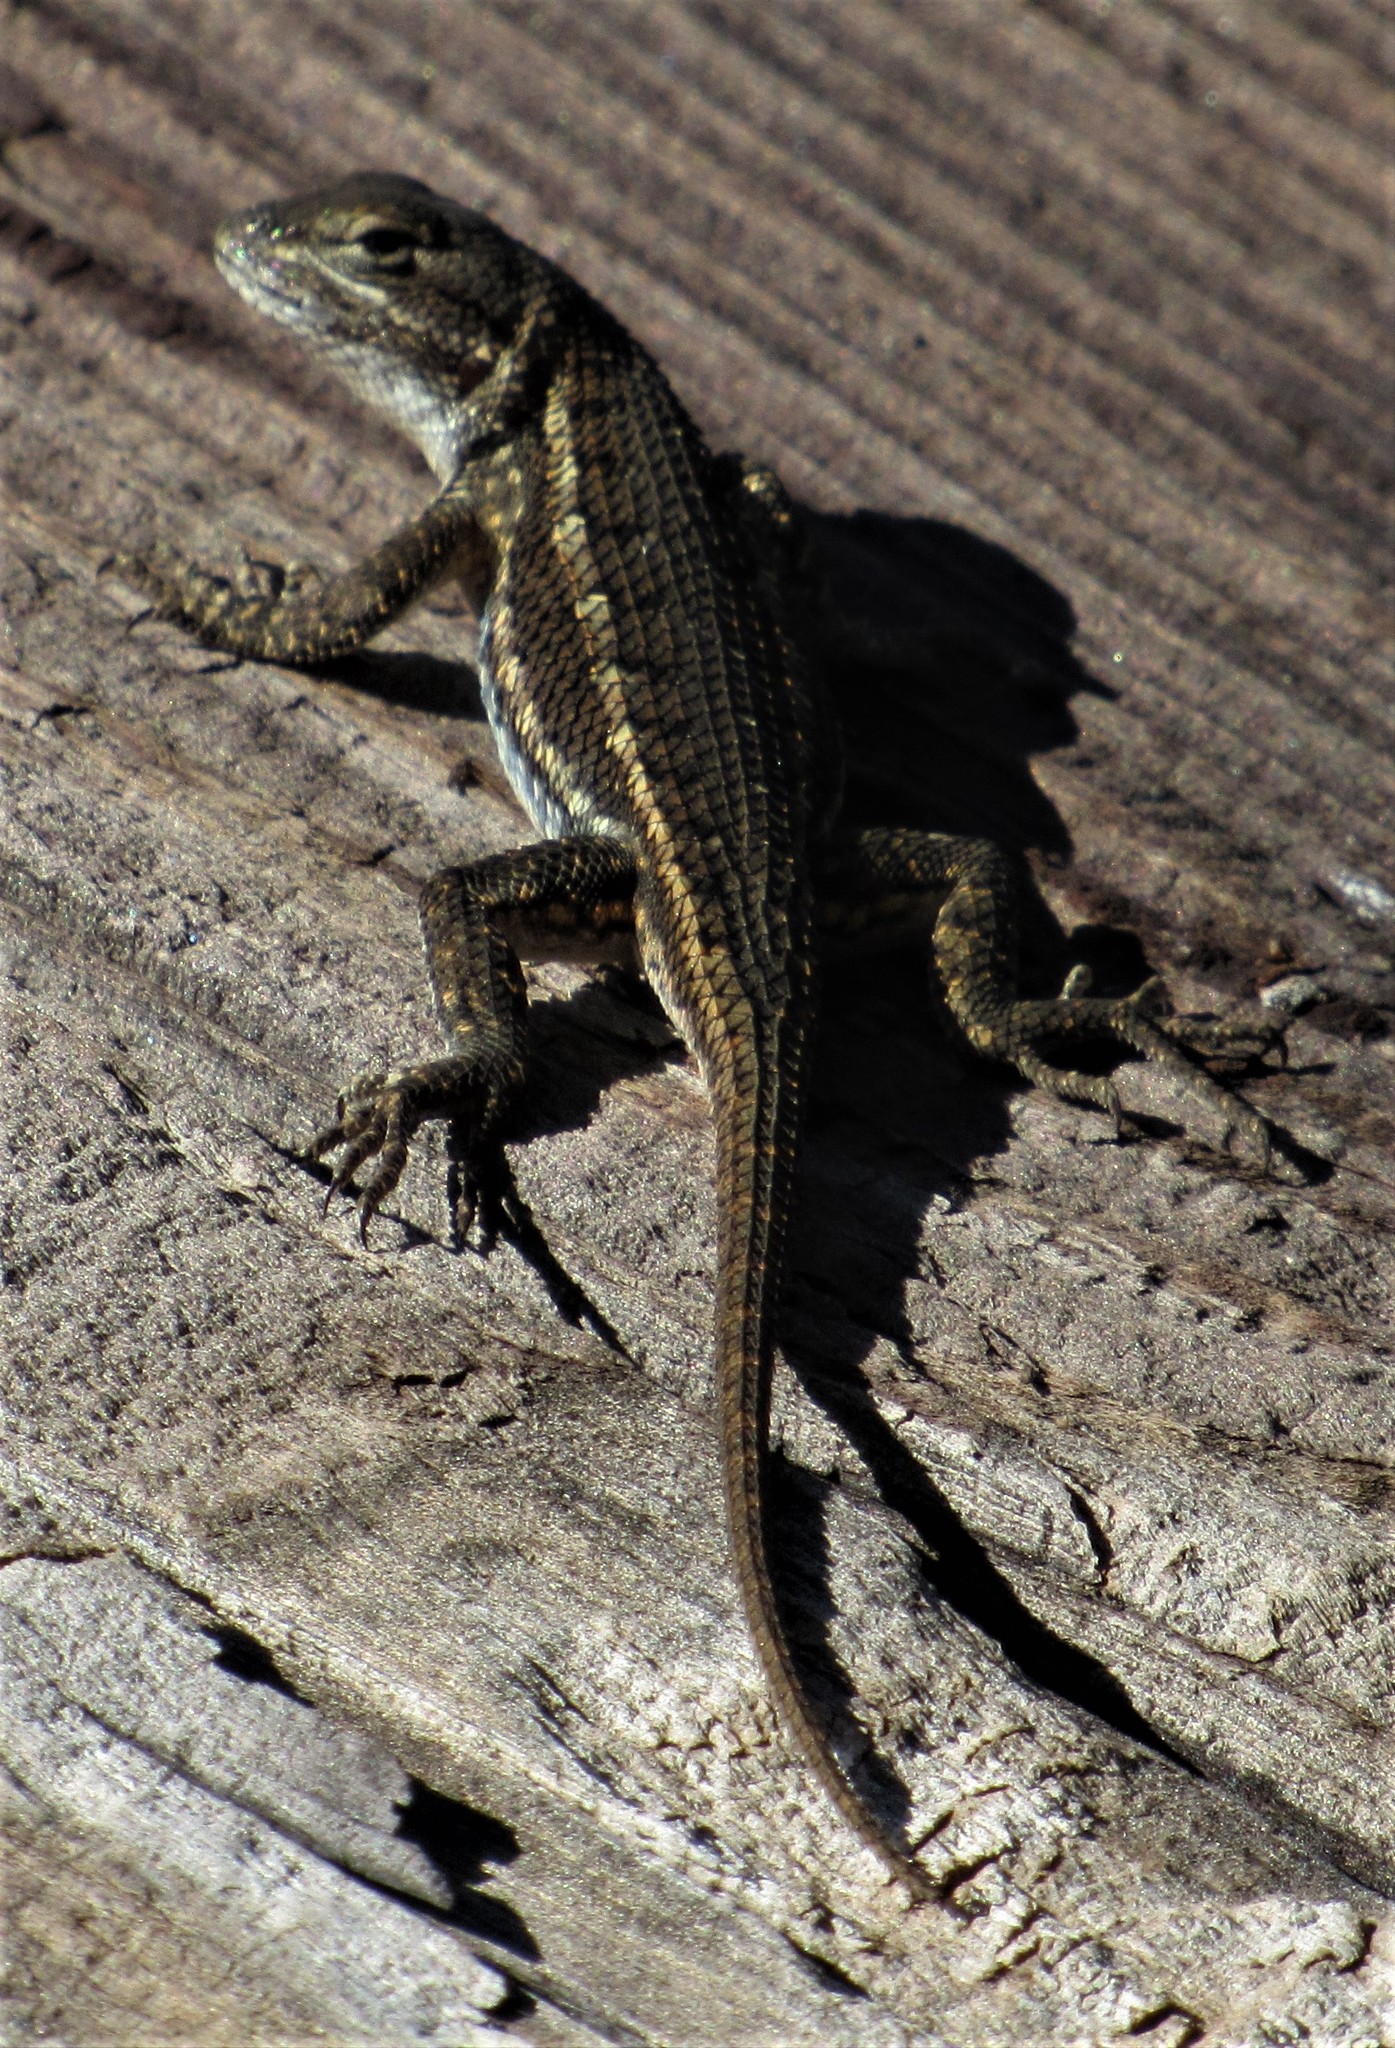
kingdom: Animalia
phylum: Chordata
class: Squamata
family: Phrynosomatidae
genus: Sceloporus
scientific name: Sceloporus consobrinus
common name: Southern prairie lizard
